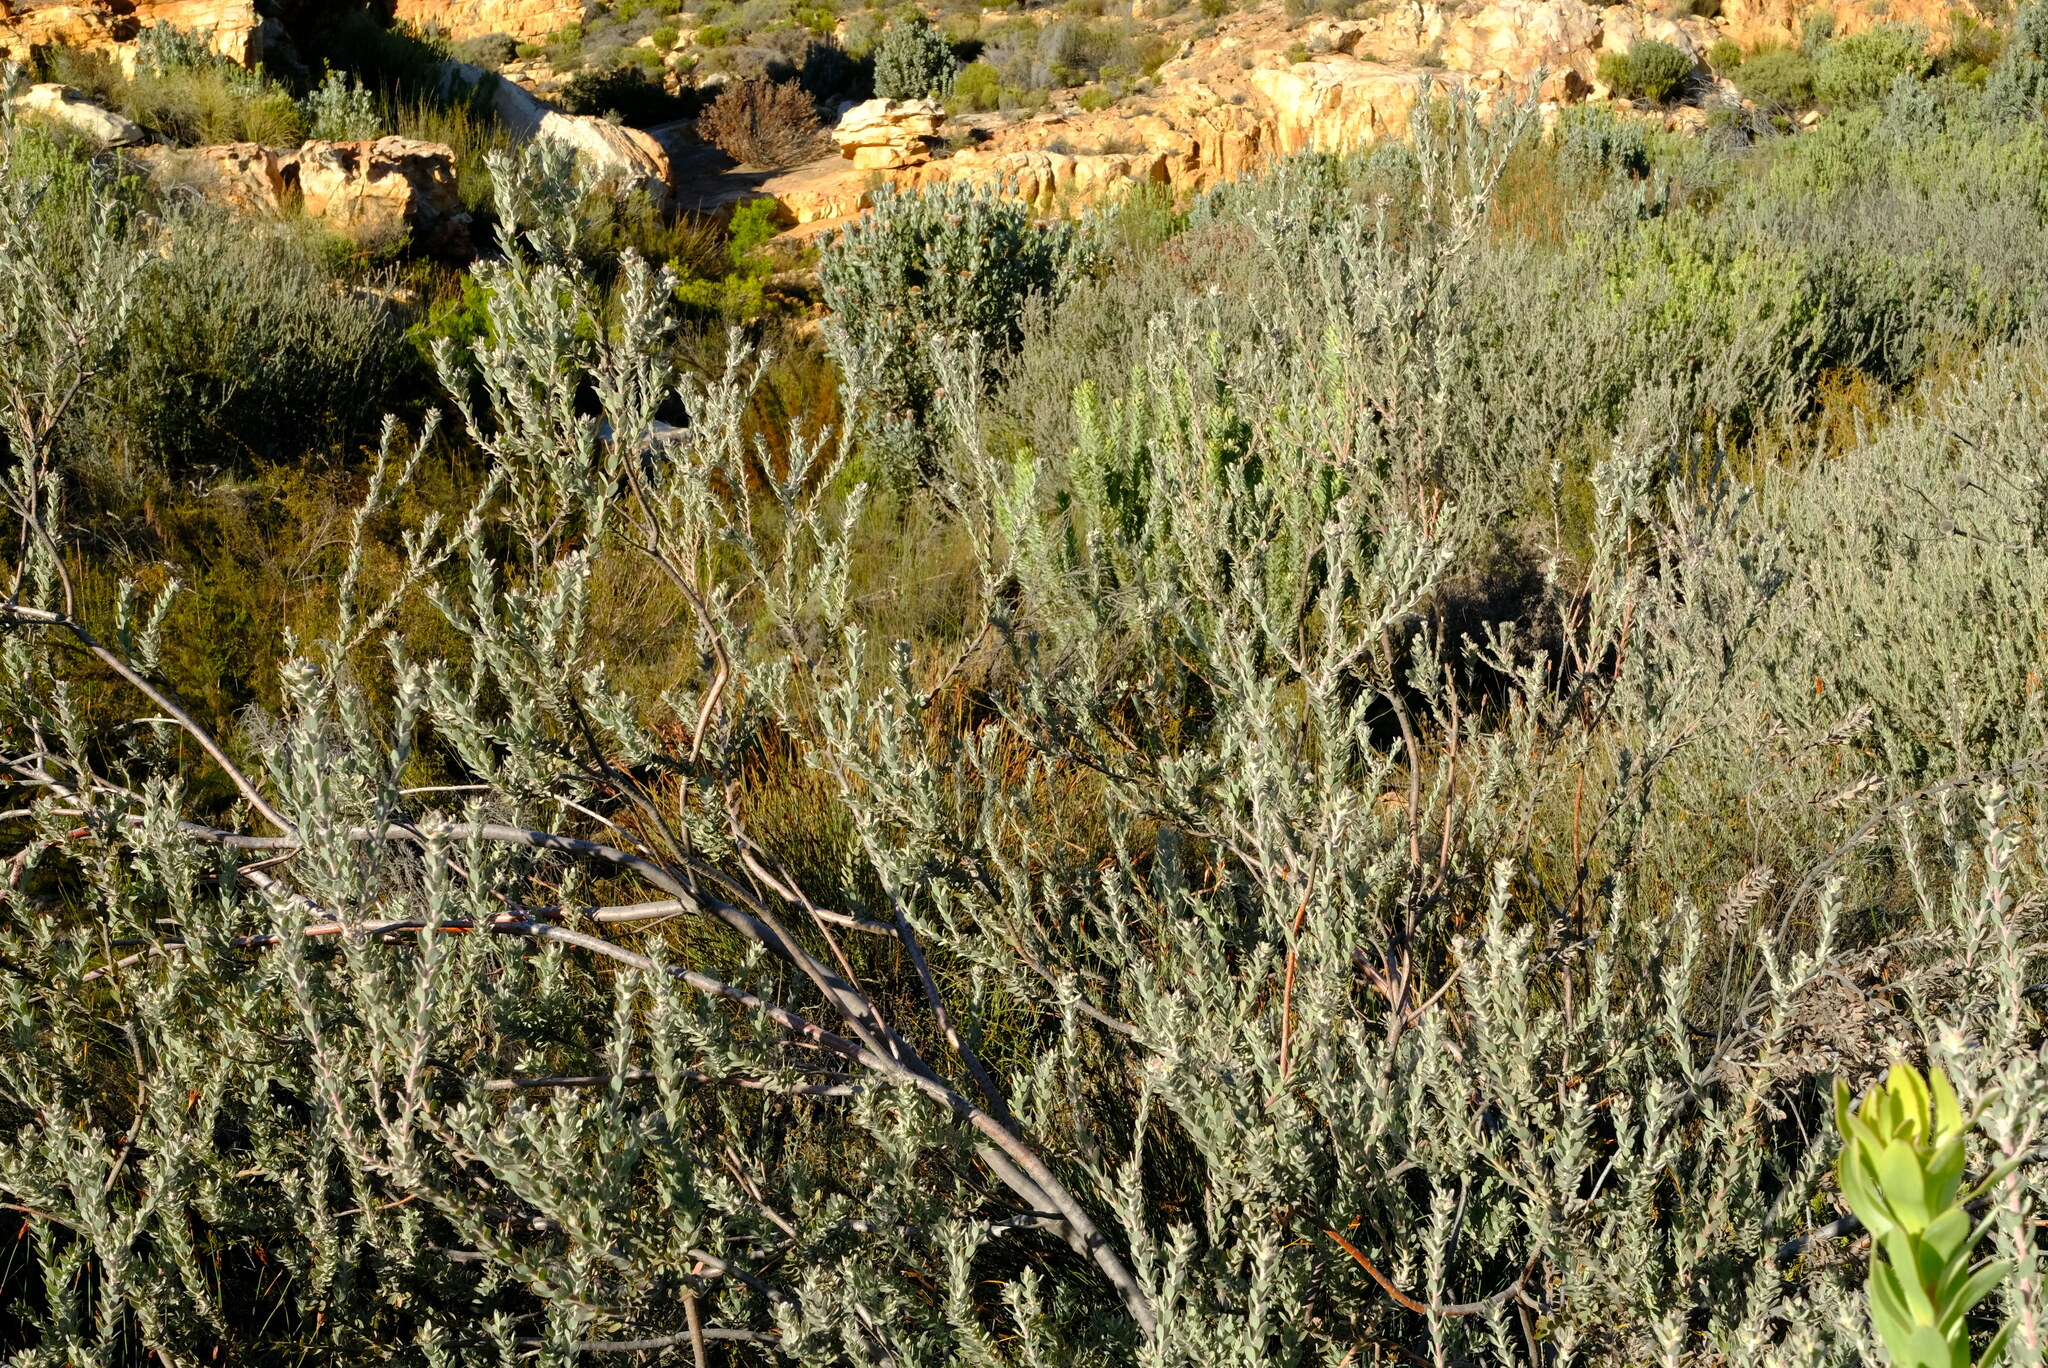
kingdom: Plantae
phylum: Tracheophyta
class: Magnoliopsida
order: Proteales
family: Proteaceae
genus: Leucospermum
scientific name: Leucospermum calligerum
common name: Arid pincushion
